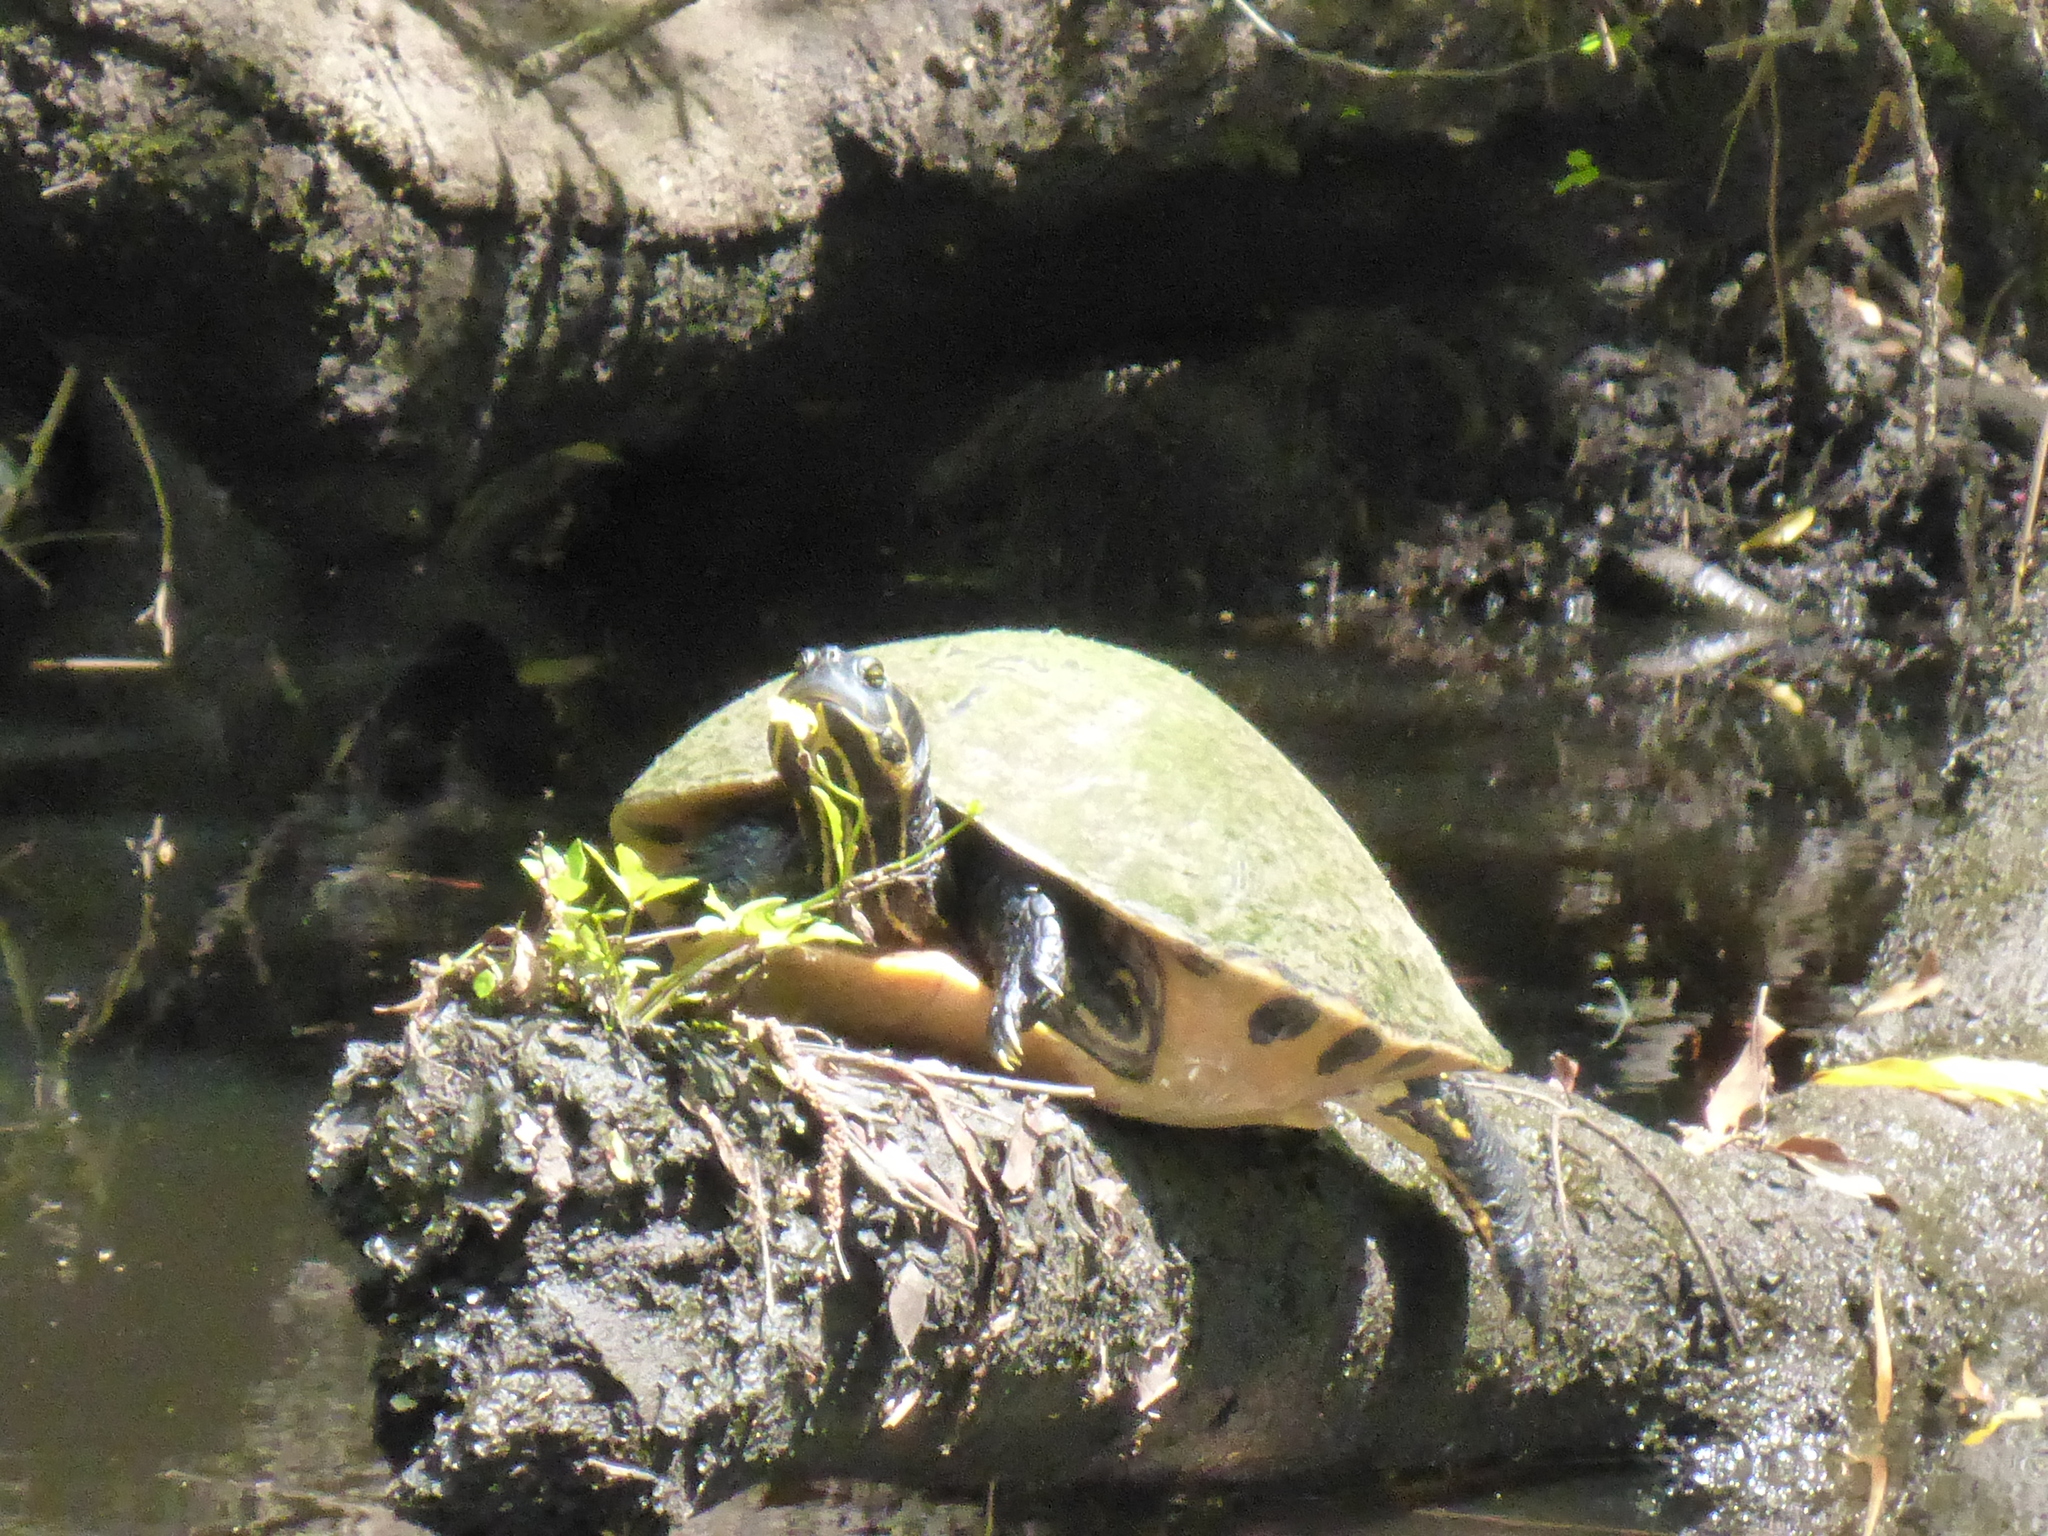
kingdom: Animalia
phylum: Chordata
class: Testudines
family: Emydidae
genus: Pseudemys
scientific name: Pseudemys concinna
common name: Eastern river cooter
